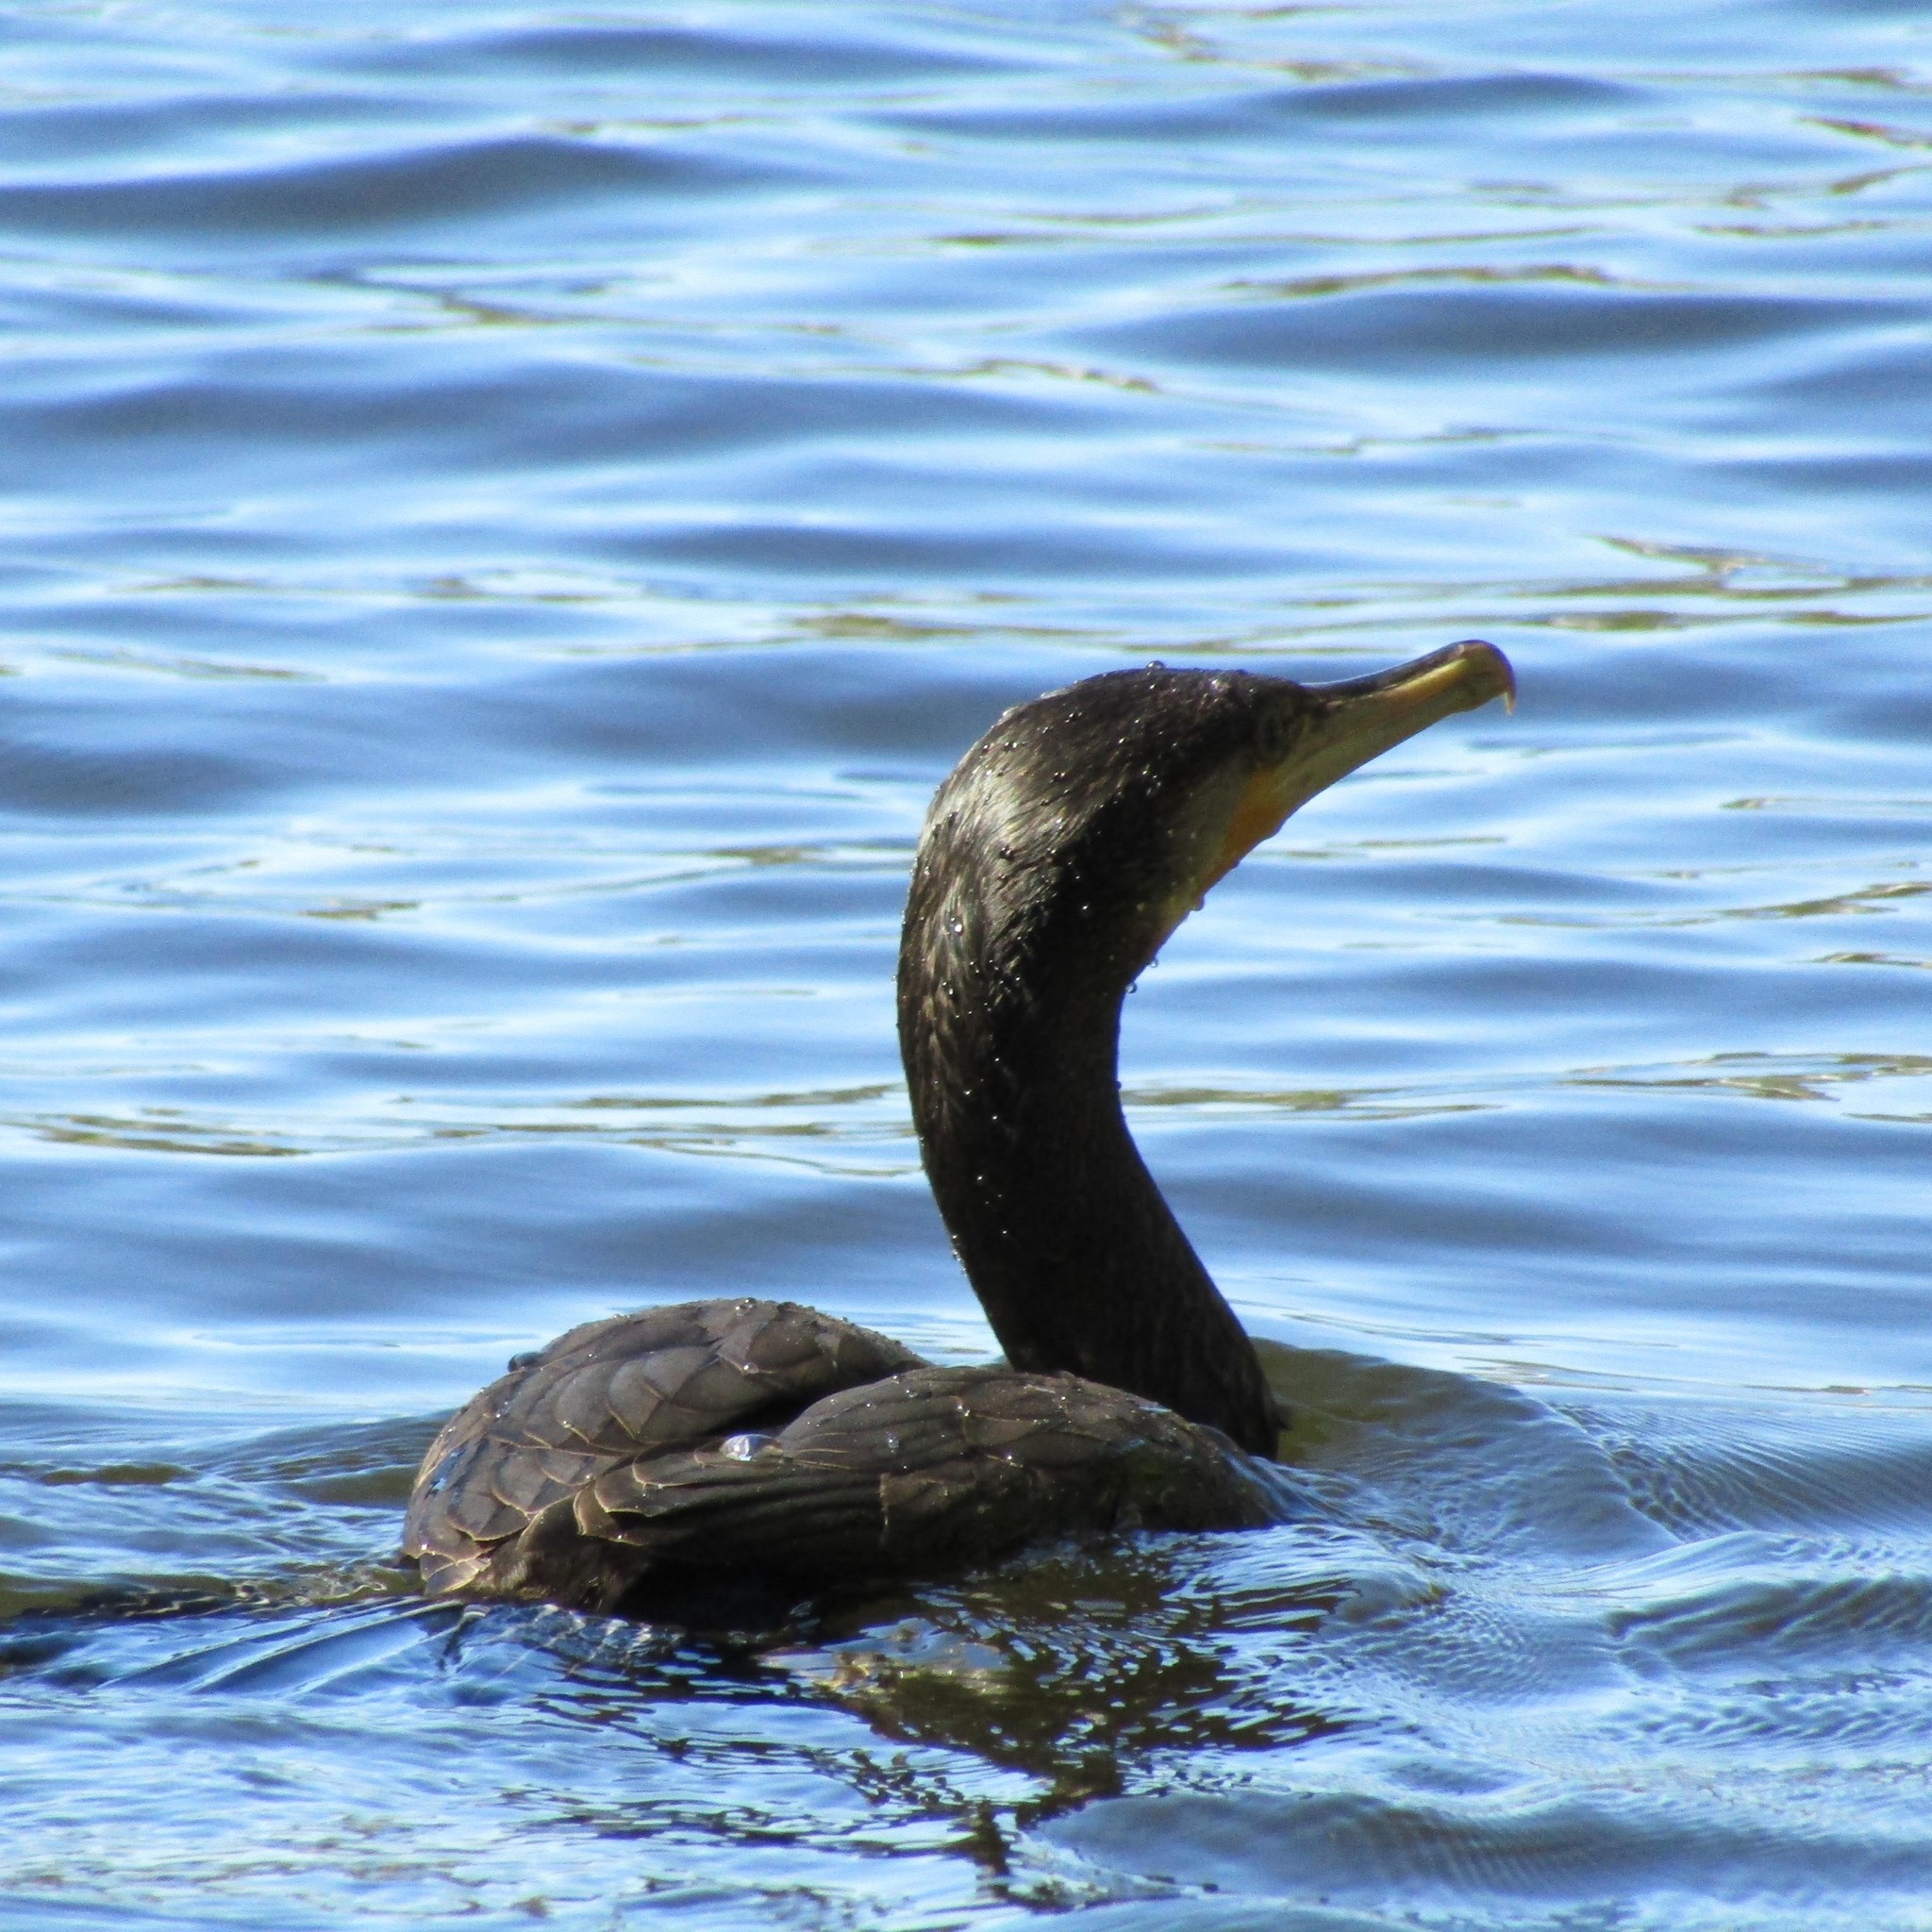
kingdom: Animalia
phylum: Chordata
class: Aves
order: Suliformes
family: Phalacrocoracidae
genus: Phalacrocorax
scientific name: Phalacrocorax carbo
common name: Great cormorant
